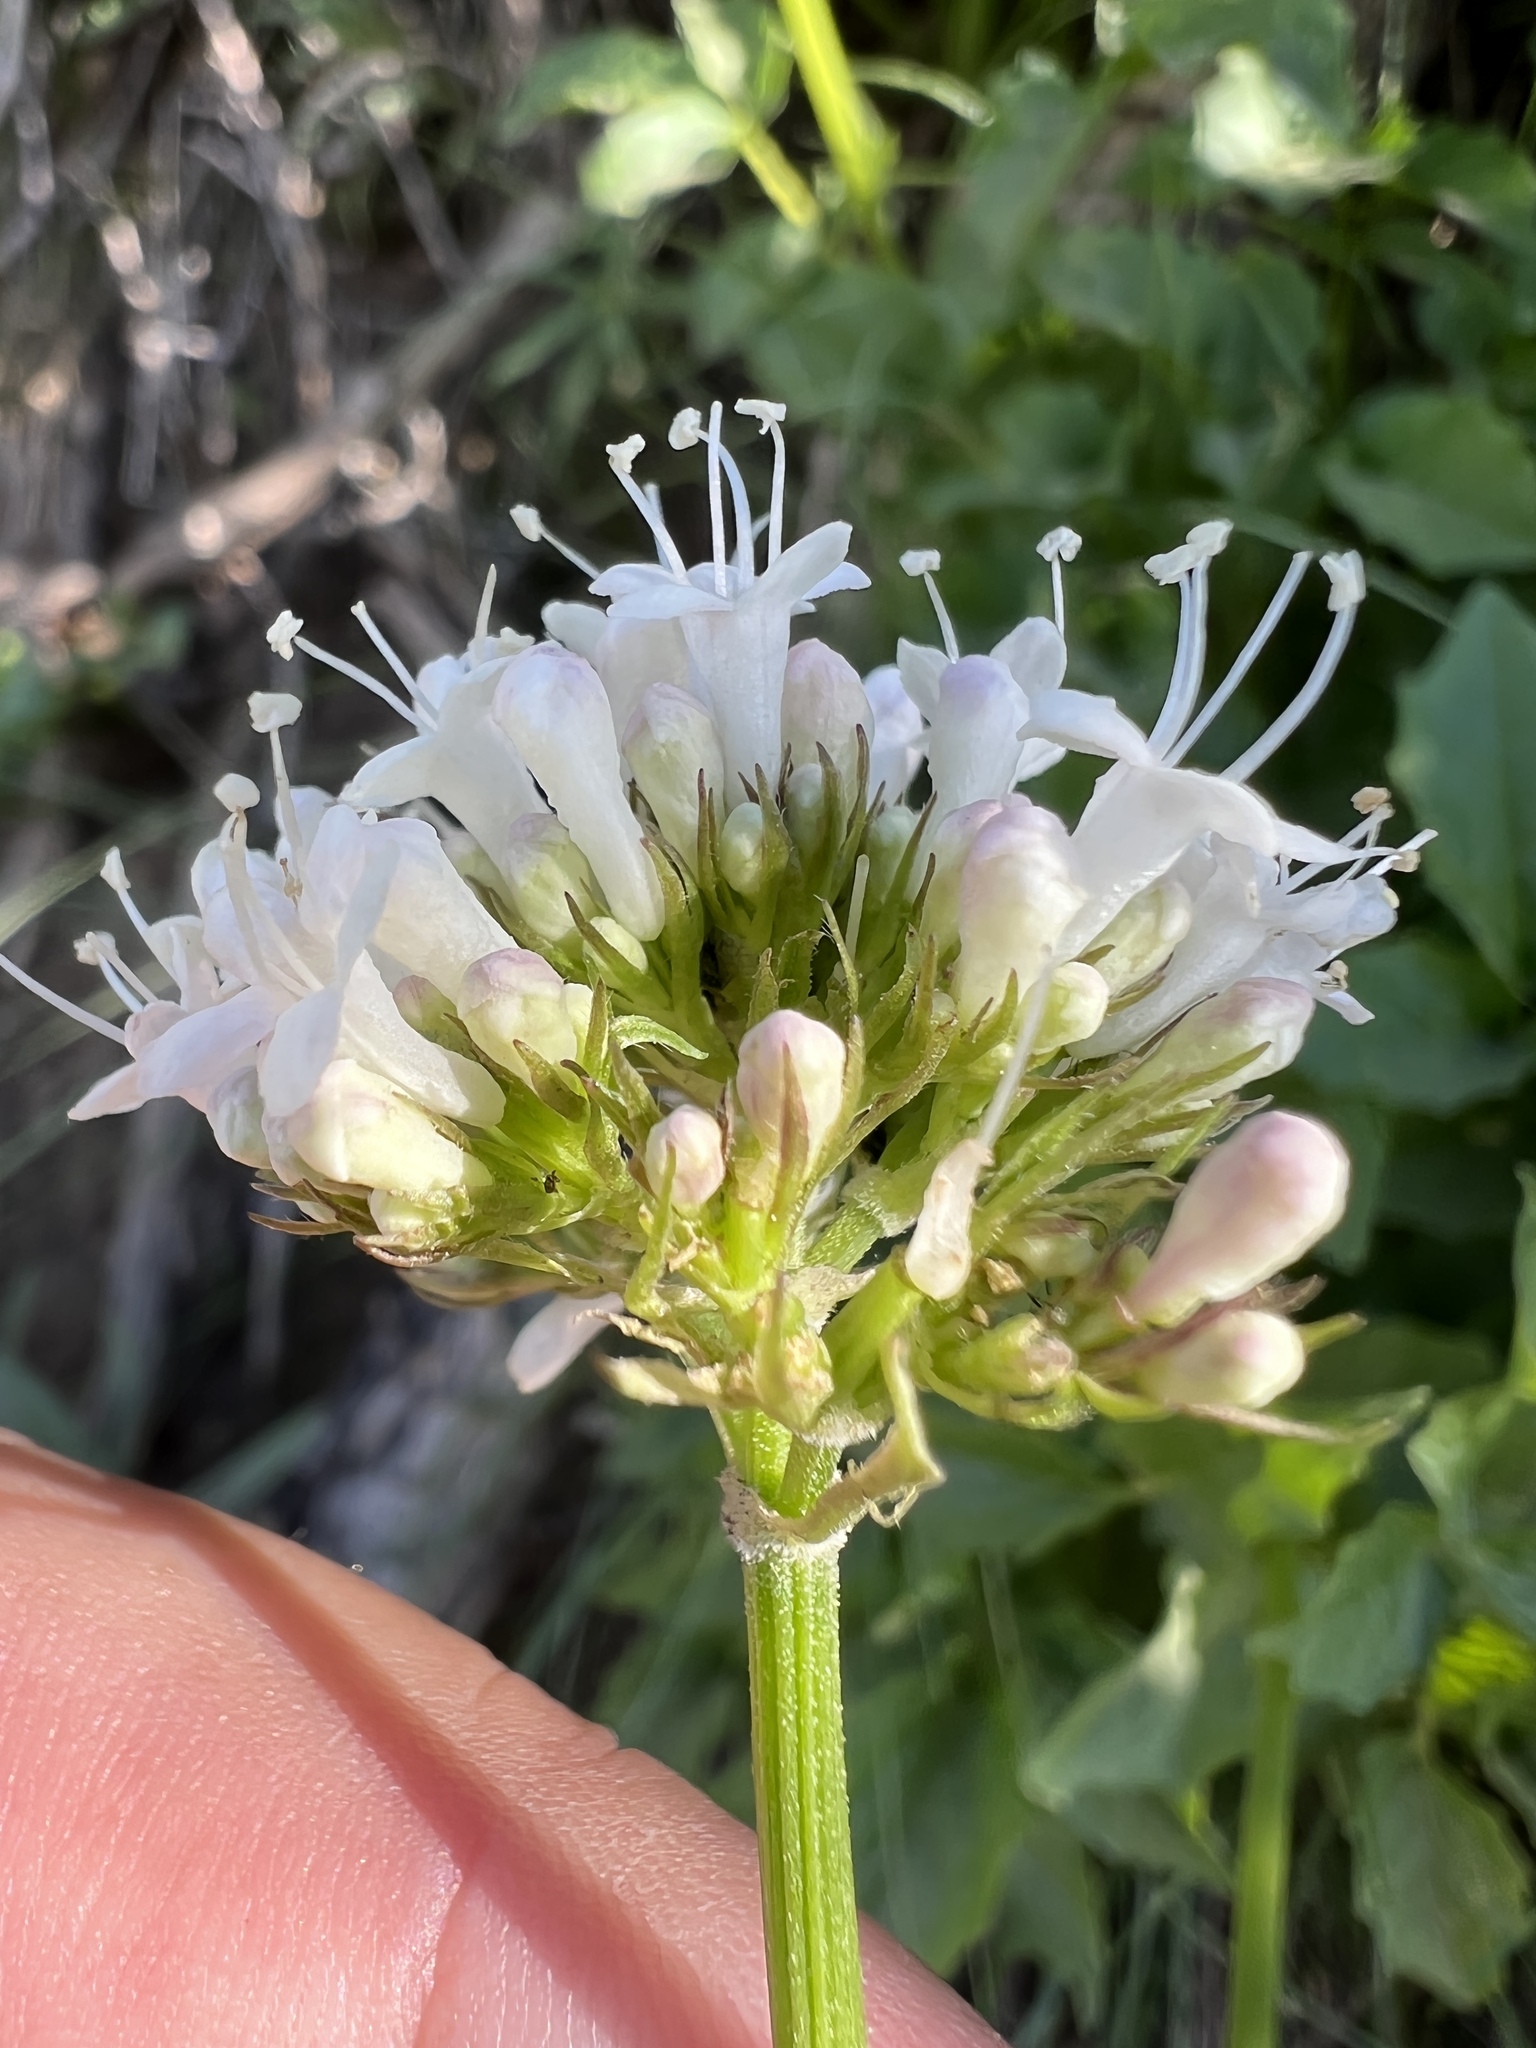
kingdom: Plantae
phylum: Tracheophyta
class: Magnoliopsida
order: Dipsacales
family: Caprifoliaceae
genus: Valeriana
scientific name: Valeriana sitchensis
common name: Pacific valerian
